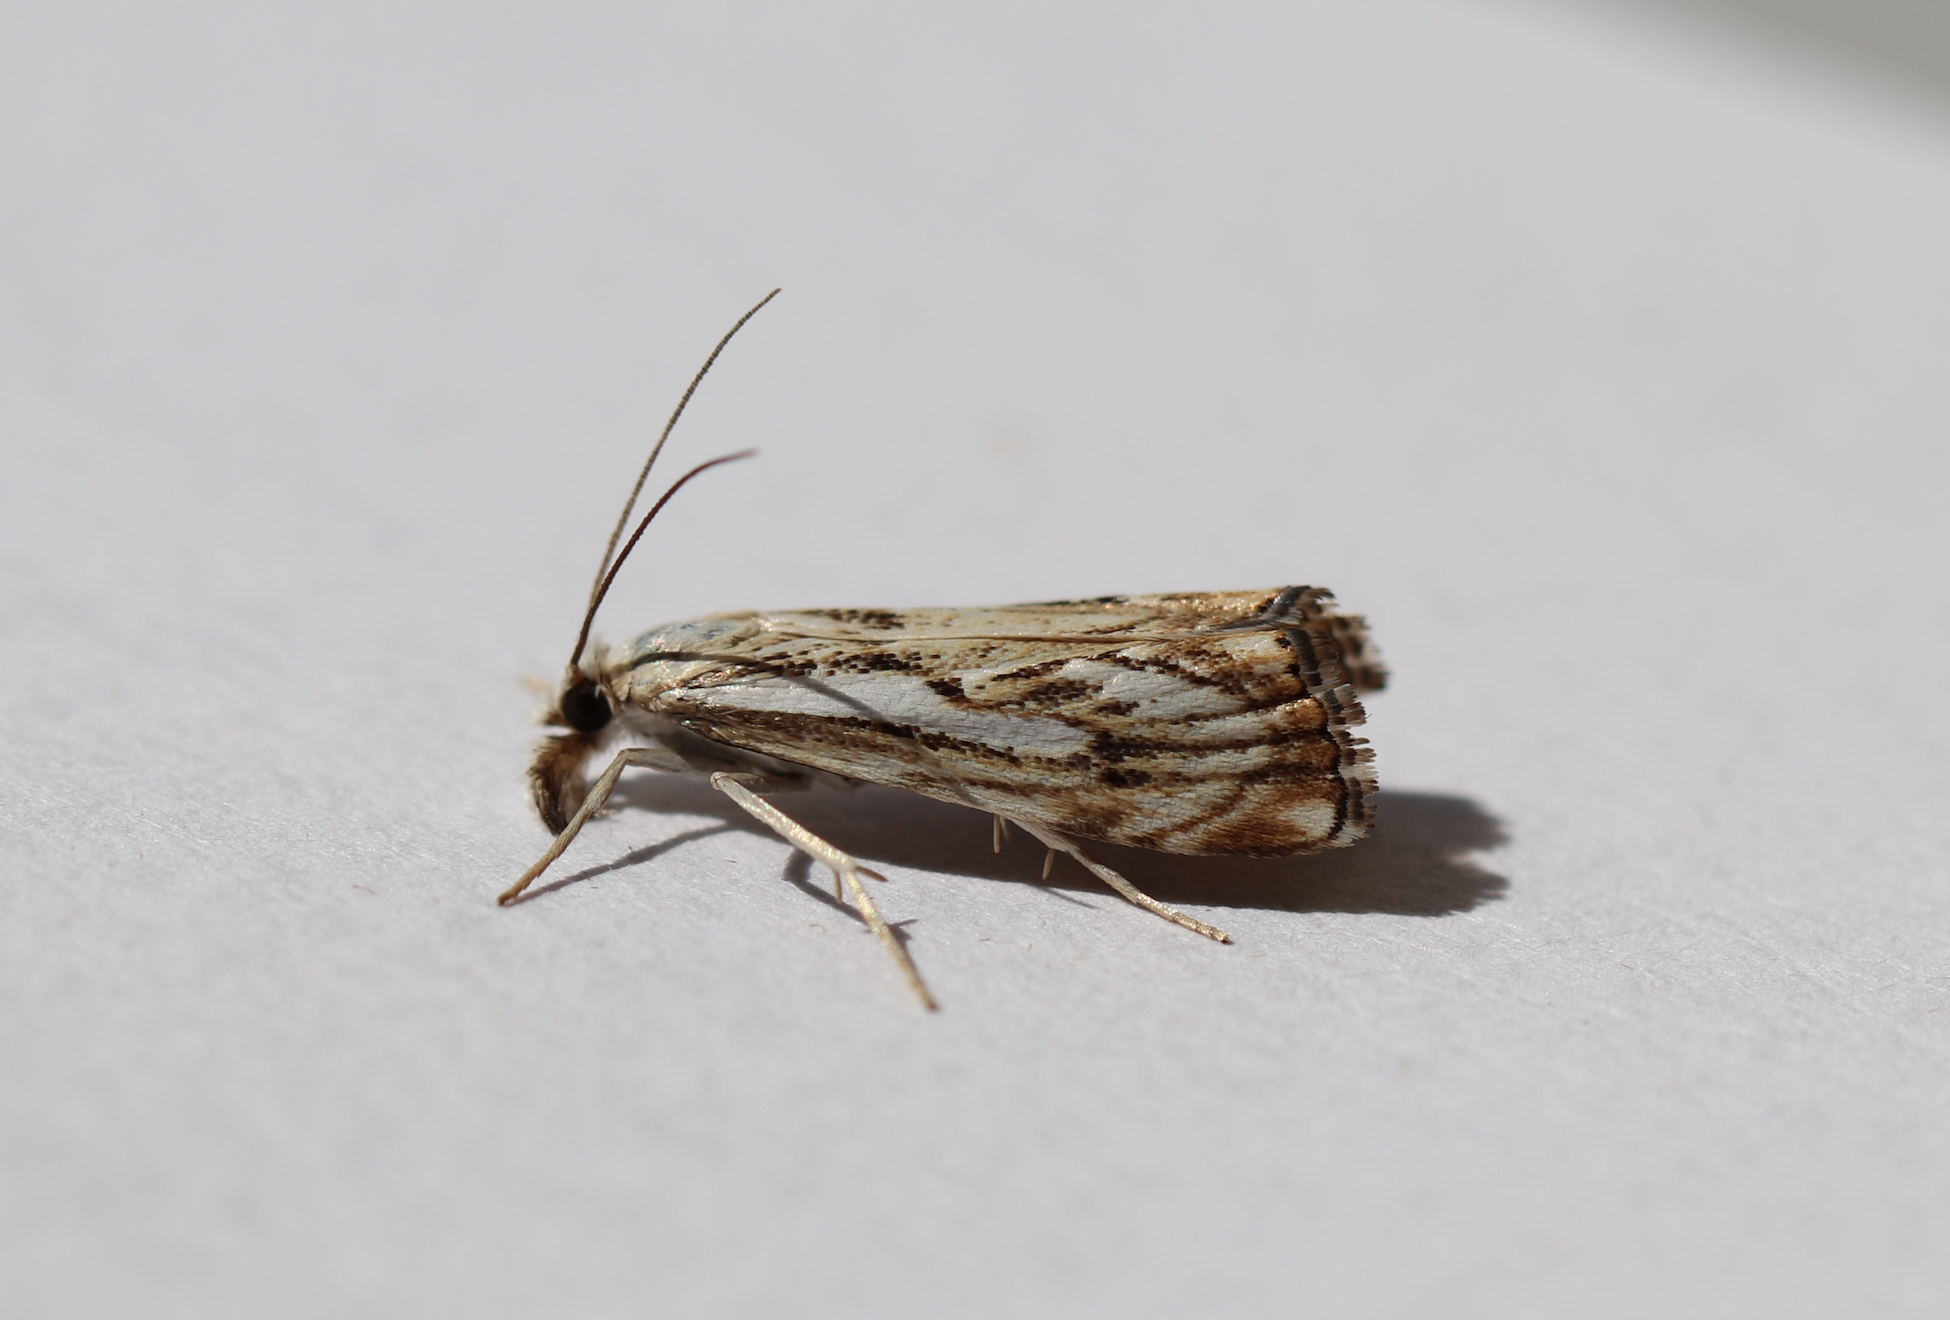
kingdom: Animalia
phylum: Arthropoda
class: Insecta
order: Lepidoptera
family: Crambidae
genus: Catoptria
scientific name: Catoptria falsella
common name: Chequered grass-veneer
